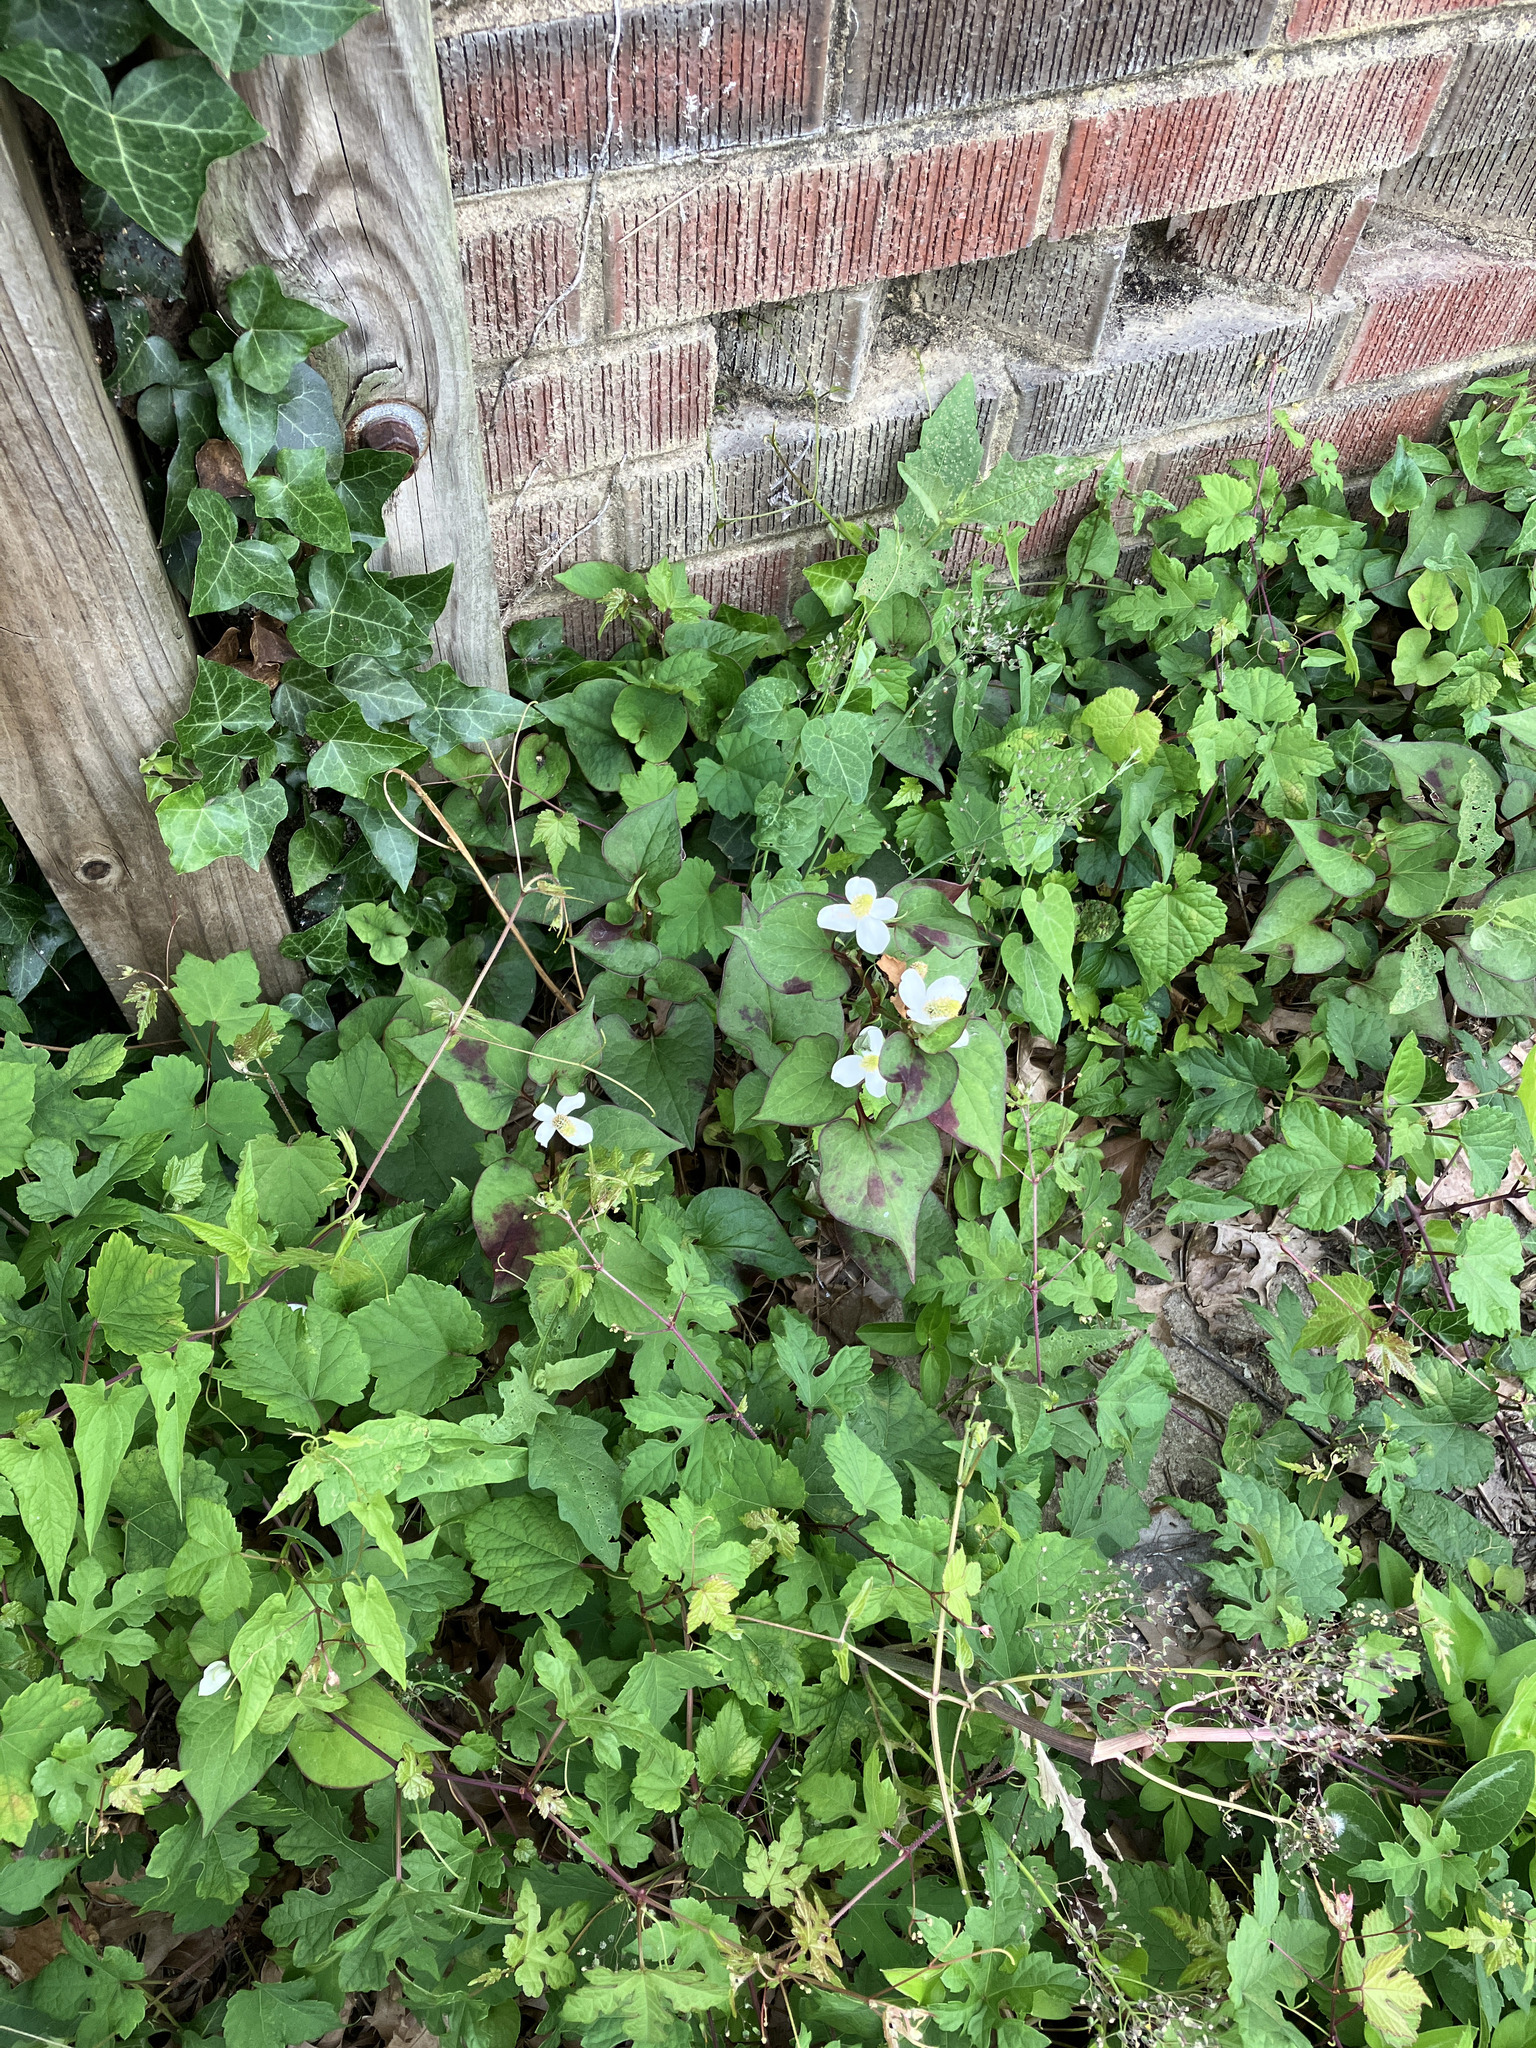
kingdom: Plantae
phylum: Tracheophyta
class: Magnoliopsida
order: Piperales
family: Saururaceae
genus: Houttuynia
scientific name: Houttuynia cordata
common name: Chameleon
